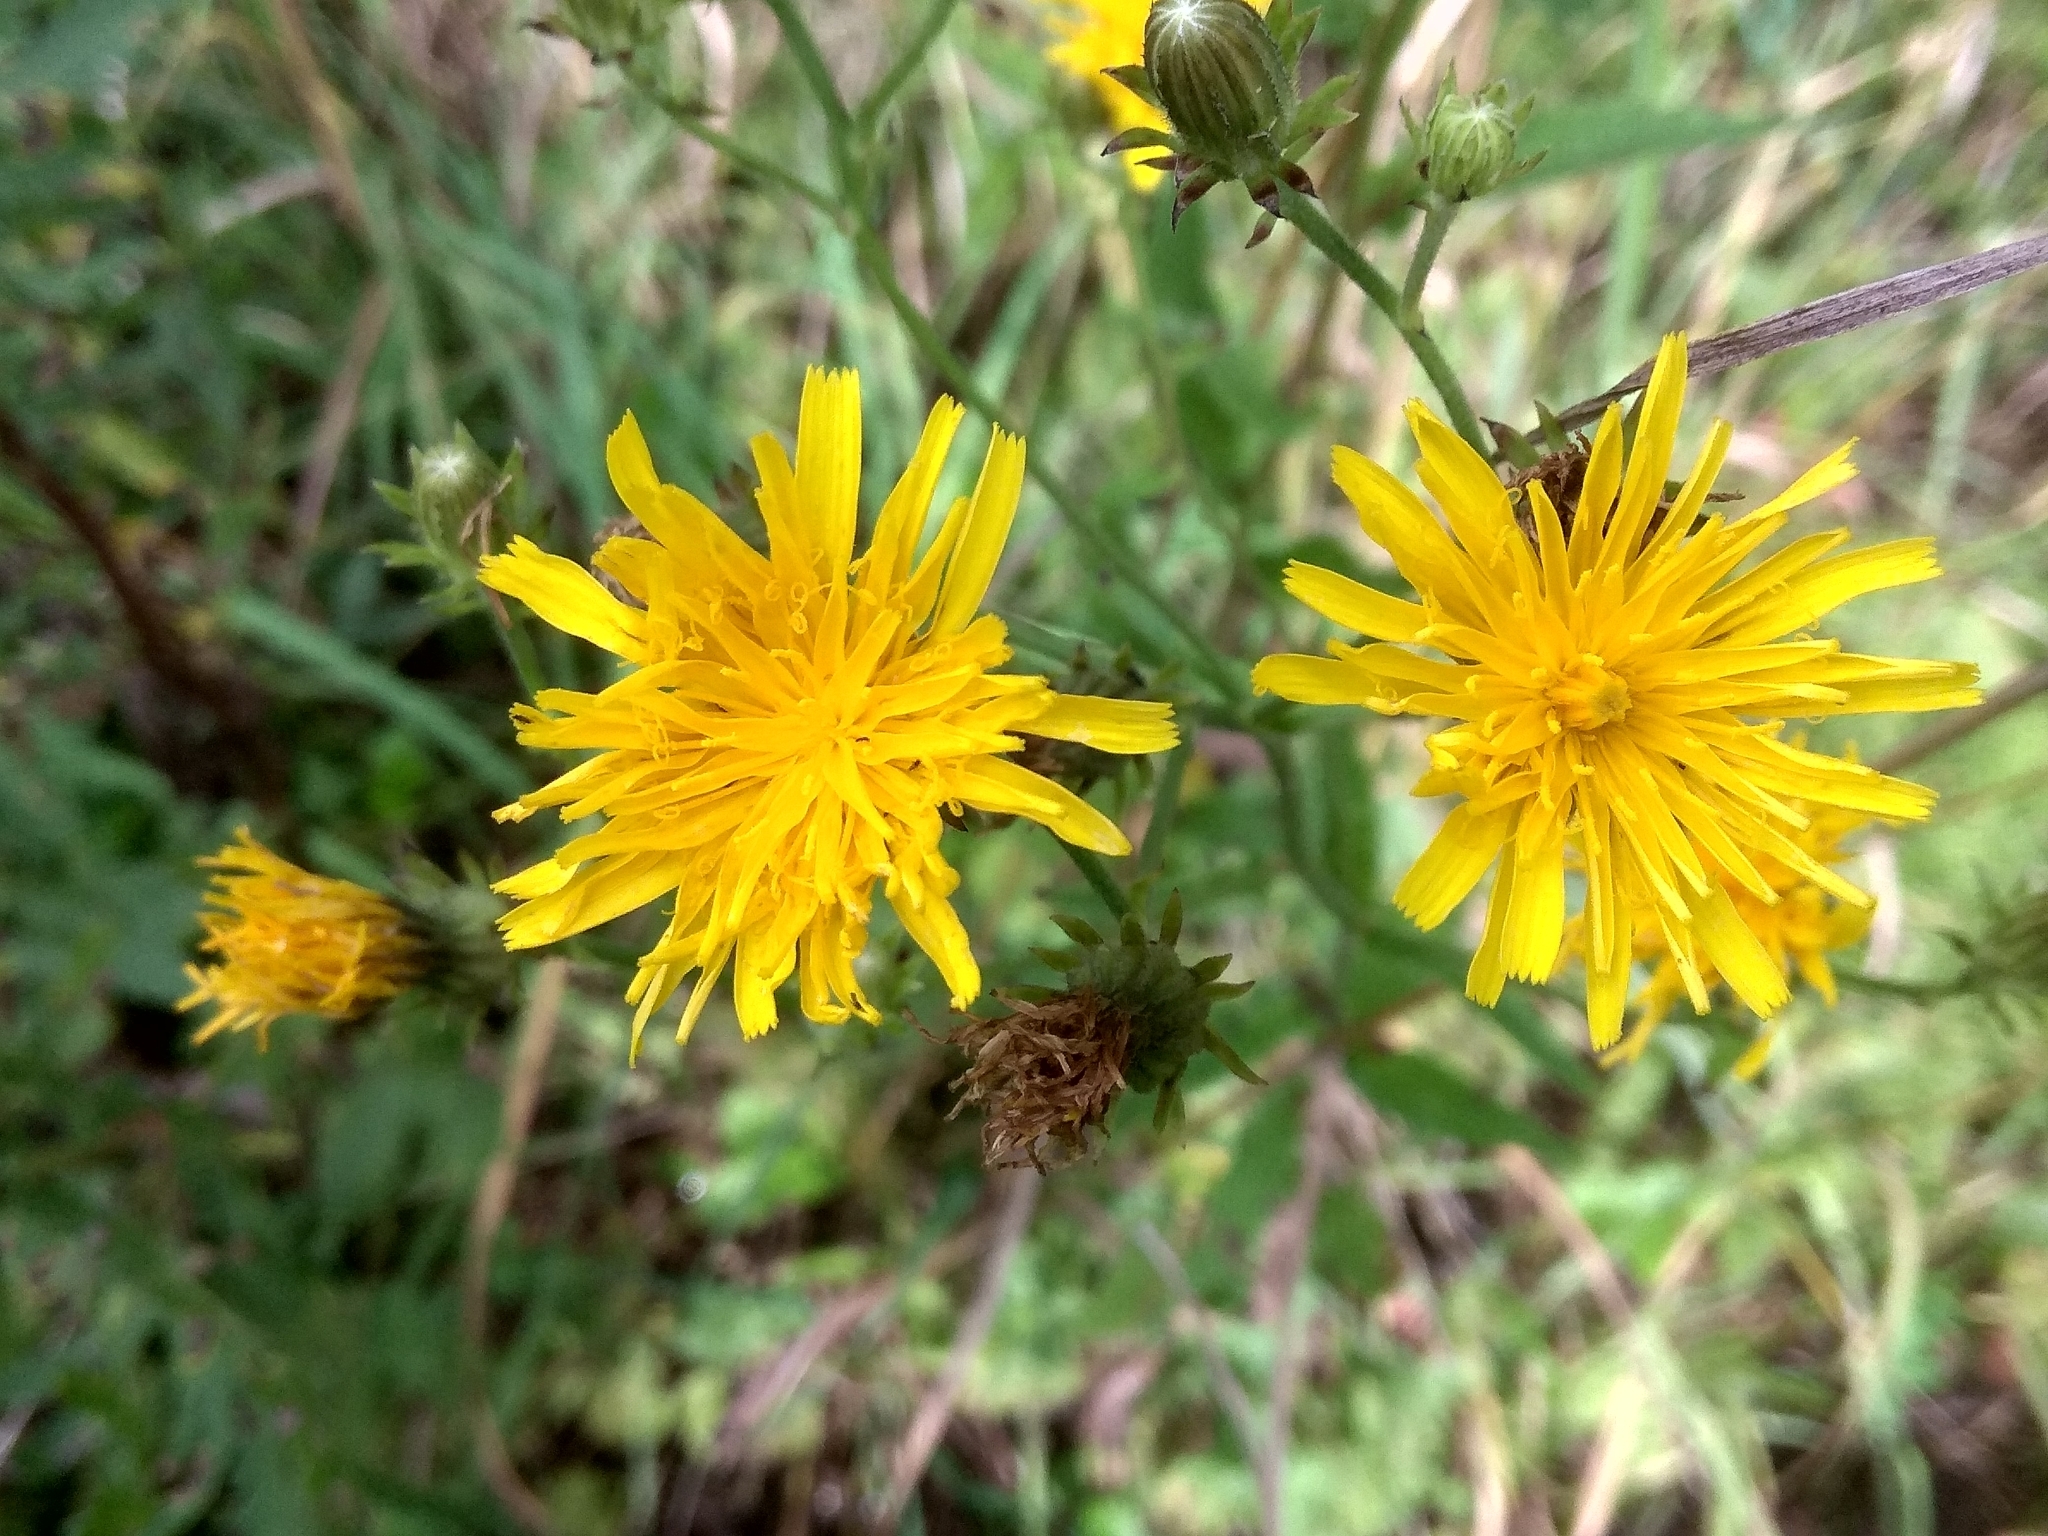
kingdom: Plantae
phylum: Tracheophyta
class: Magnoliopsida
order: Asterales
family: Asteraceae
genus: Picris
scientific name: Picris hieracioides
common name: Hawkweed oxtongue
